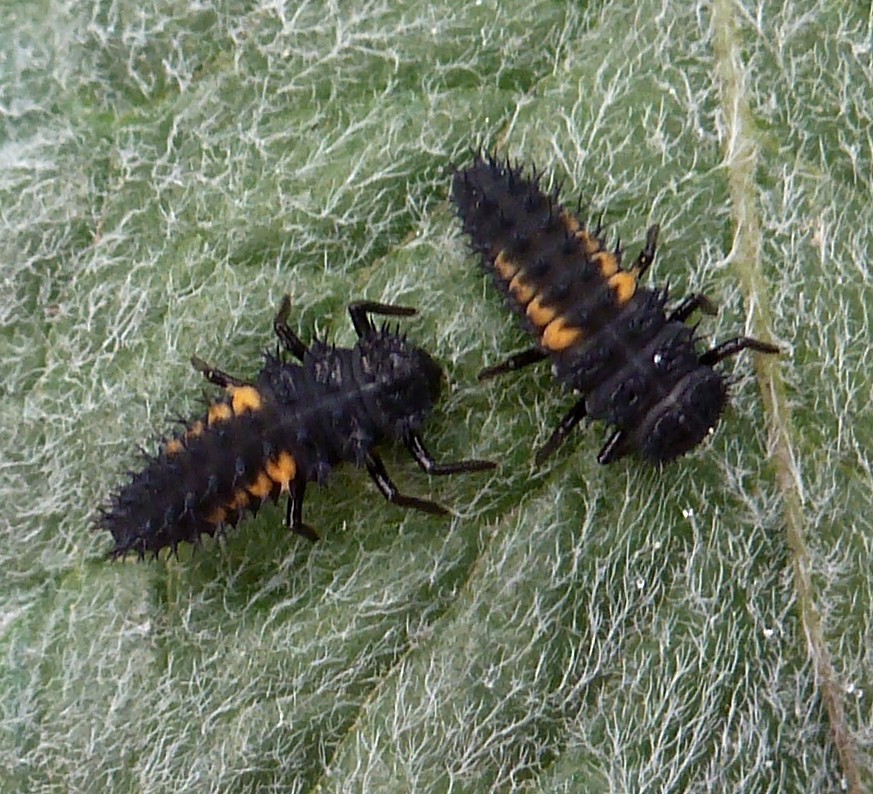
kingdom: Animalia
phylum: Arthropoda
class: Insecta
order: Coleoptera
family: Coccinellidae
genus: Harmonia
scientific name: Harmonia axyridis
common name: Harlequin ladybird
